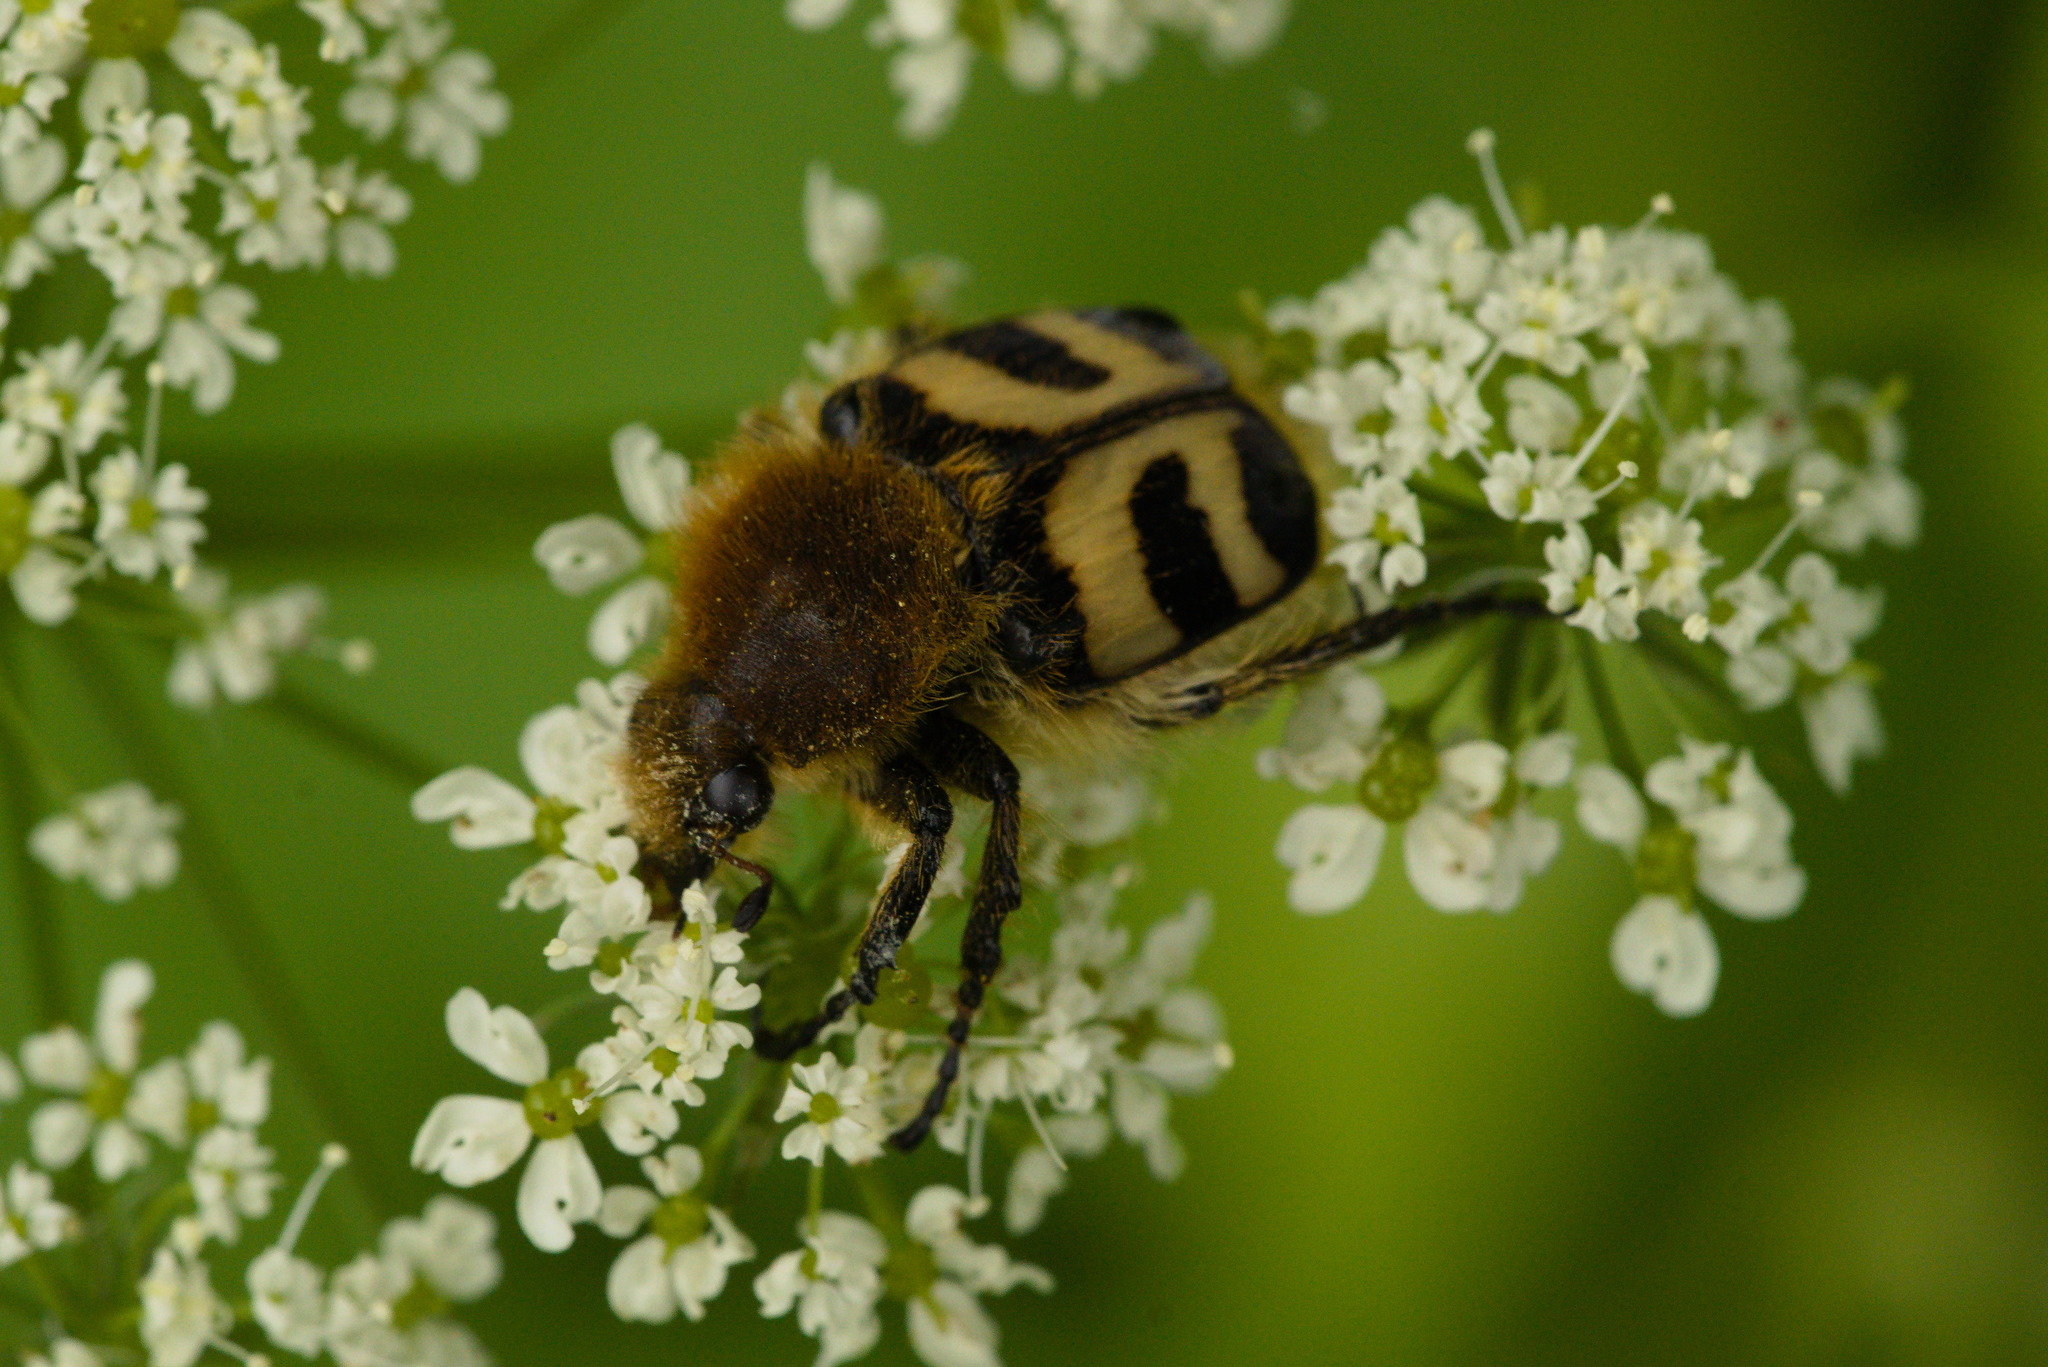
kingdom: Animalia
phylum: Arthropoda
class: Insecta
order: Coleoptera
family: Scarabaeidae
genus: Trichius
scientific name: Trichius fasciatus
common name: Bee beetle
